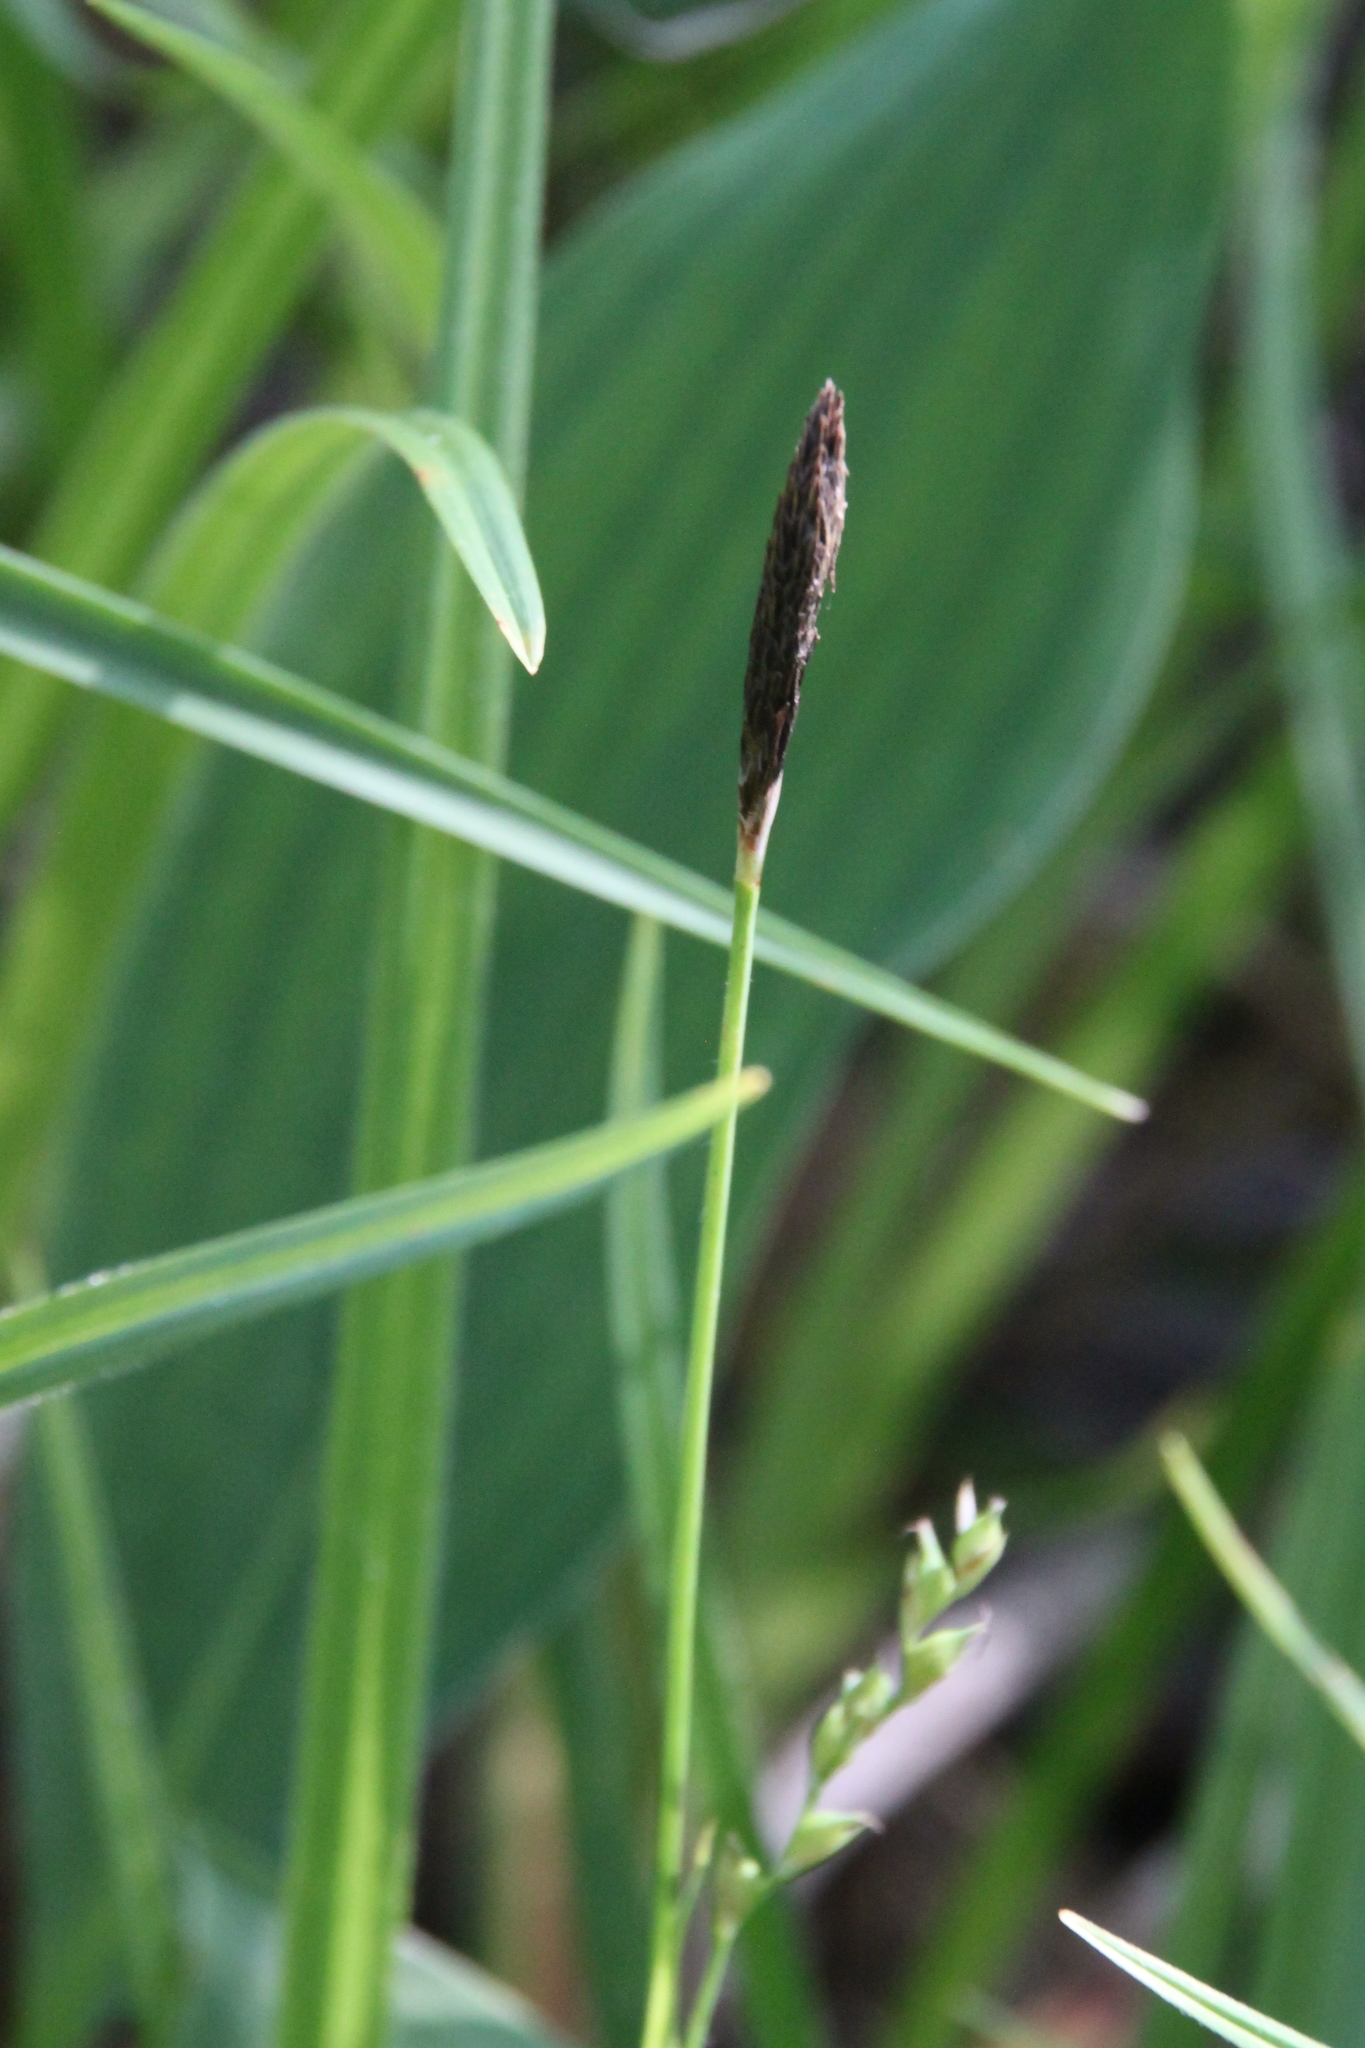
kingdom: Plantae
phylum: Tracheophyta
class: Liliopsida
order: Poales
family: Cyperaceae
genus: Carex
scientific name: Carex pilosa
